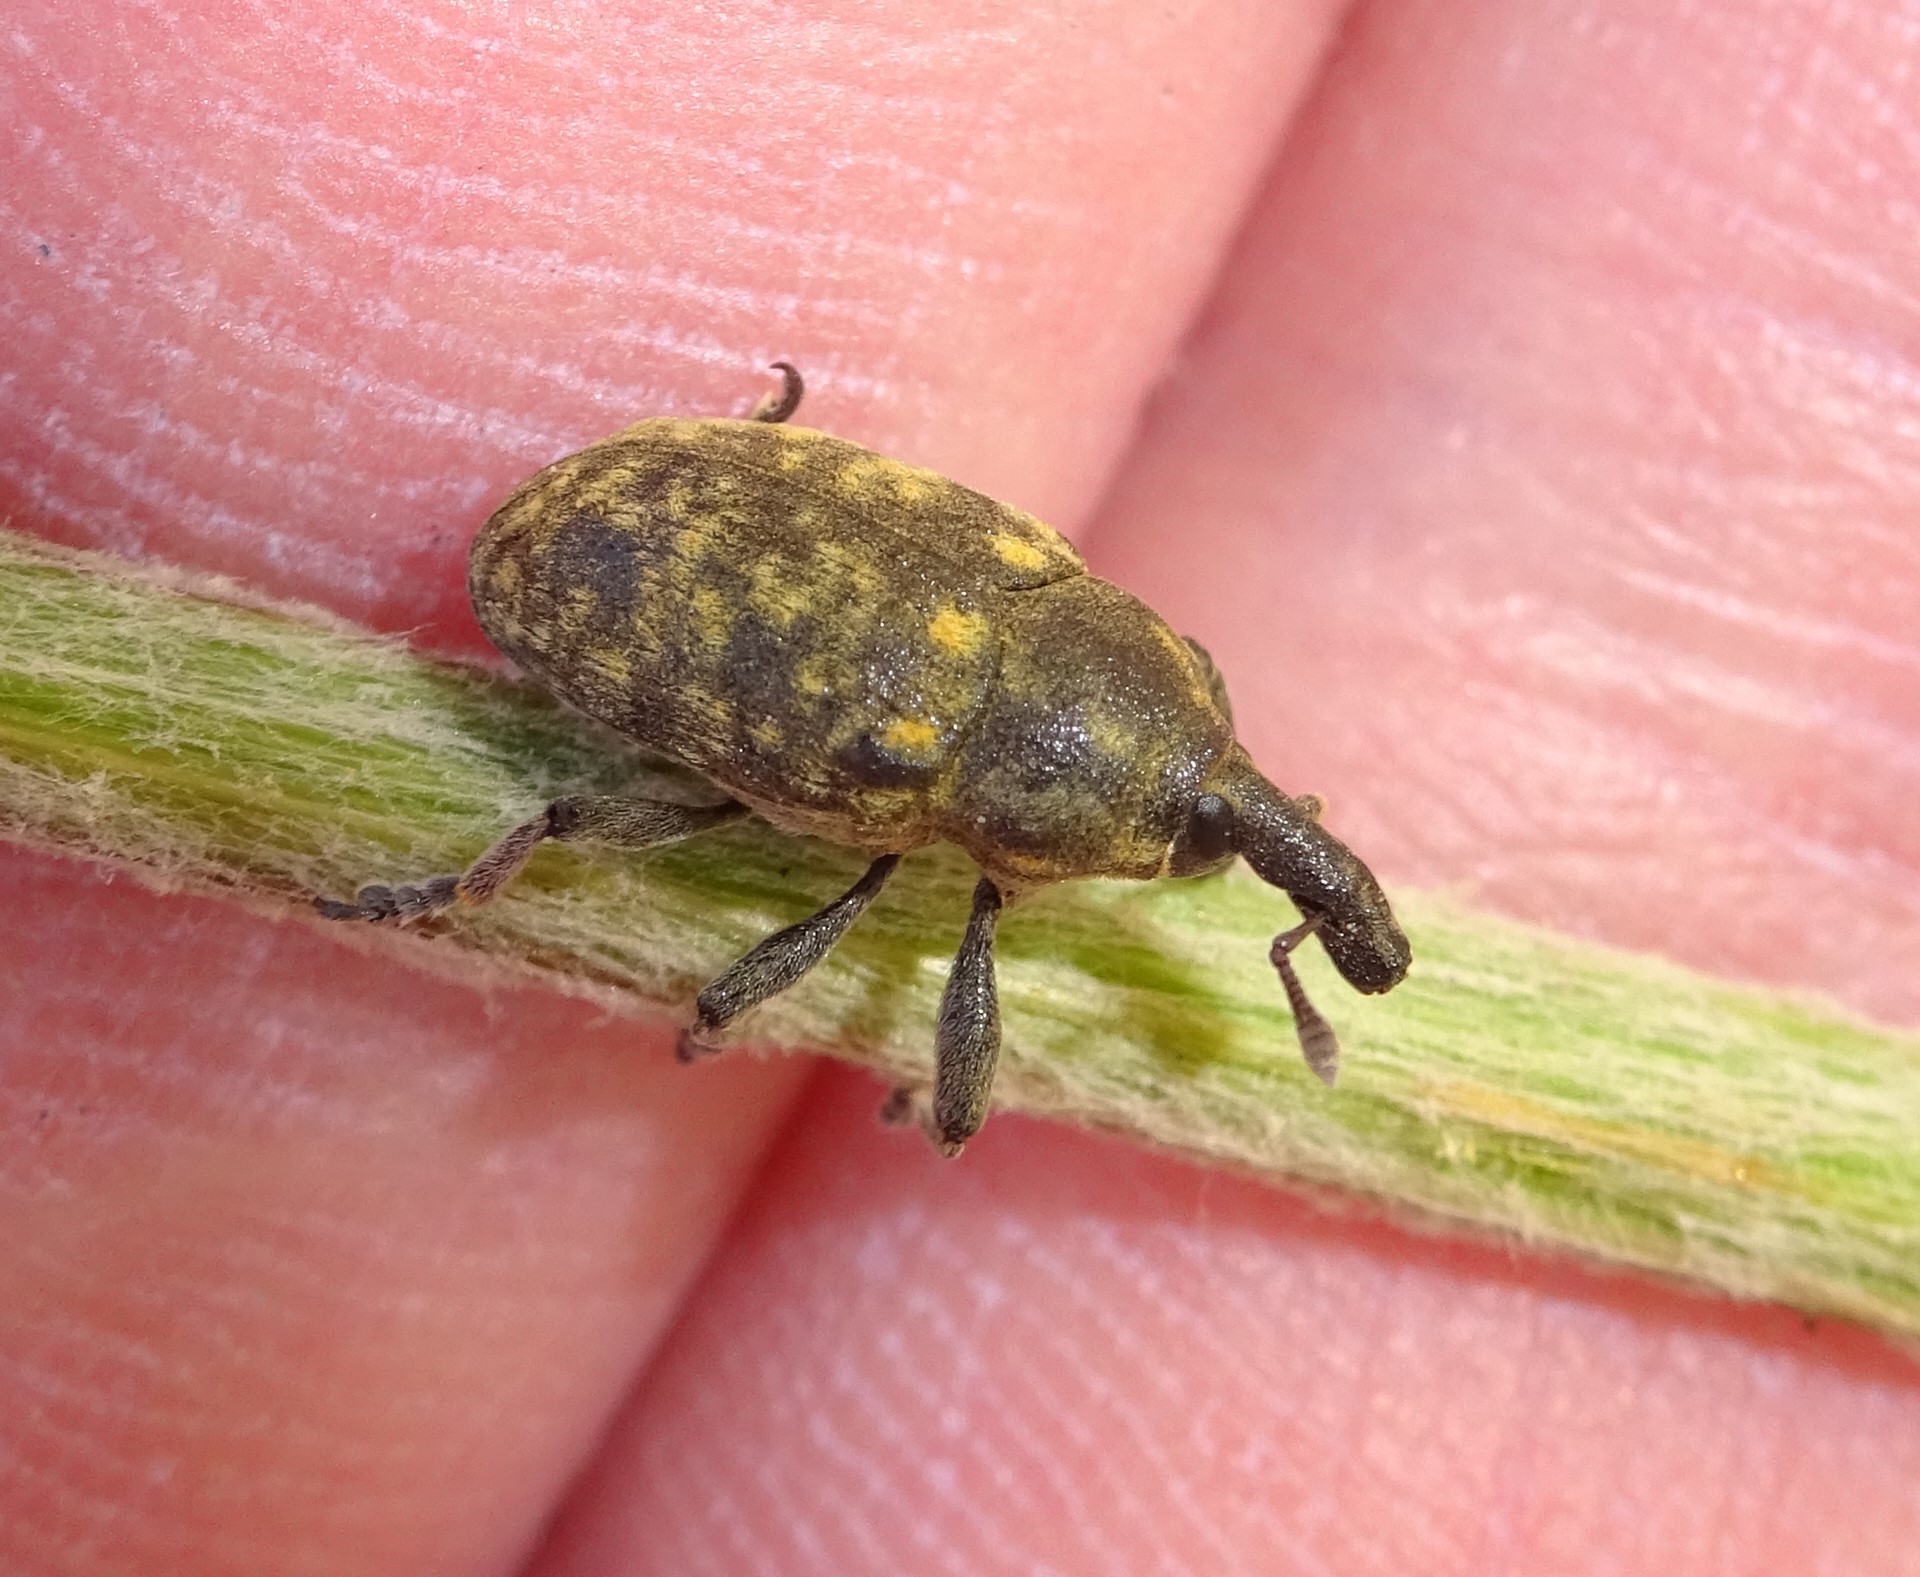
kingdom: Animalia
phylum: Arthropoda
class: Insecta
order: Coleoptera
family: Curculionidae
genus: Larinus
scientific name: Larinus turbinatus
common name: Weevil
